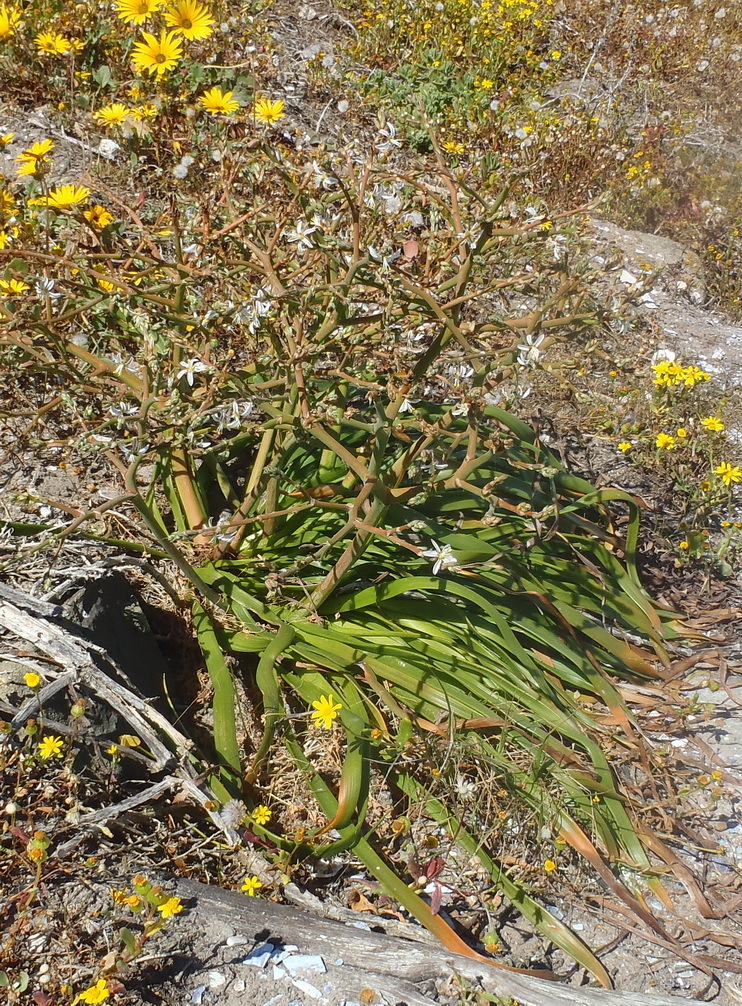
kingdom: Plantae
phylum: Tracheophyta
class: Liliopsida
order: Asparagales
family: Asphodelaceae
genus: Trachyandra
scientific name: Trachyandra divaricata
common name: Dune onionweed
